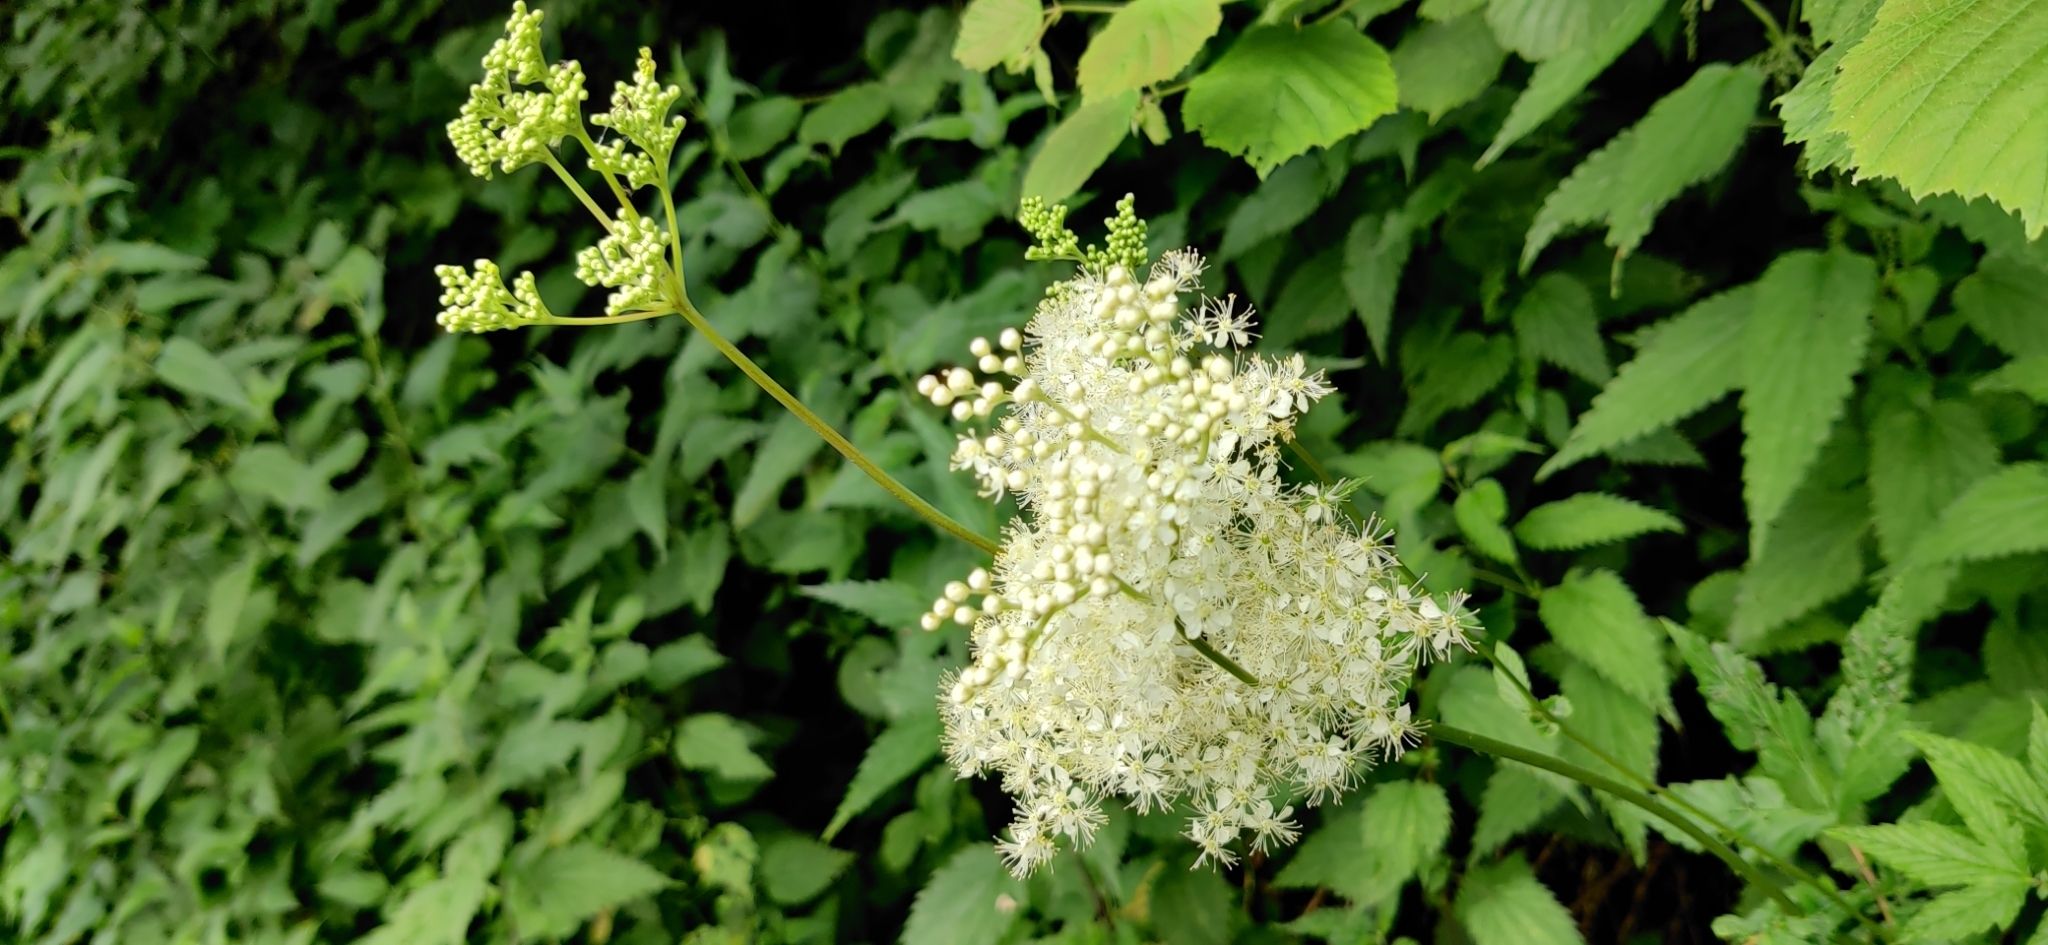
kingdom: Plantae
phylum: Tracheophyta
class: Magnoliopsida
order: Rosales
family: Rosaceae
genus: Filipendula
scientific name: Filipendula ulmaria
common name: Meadowsweet
